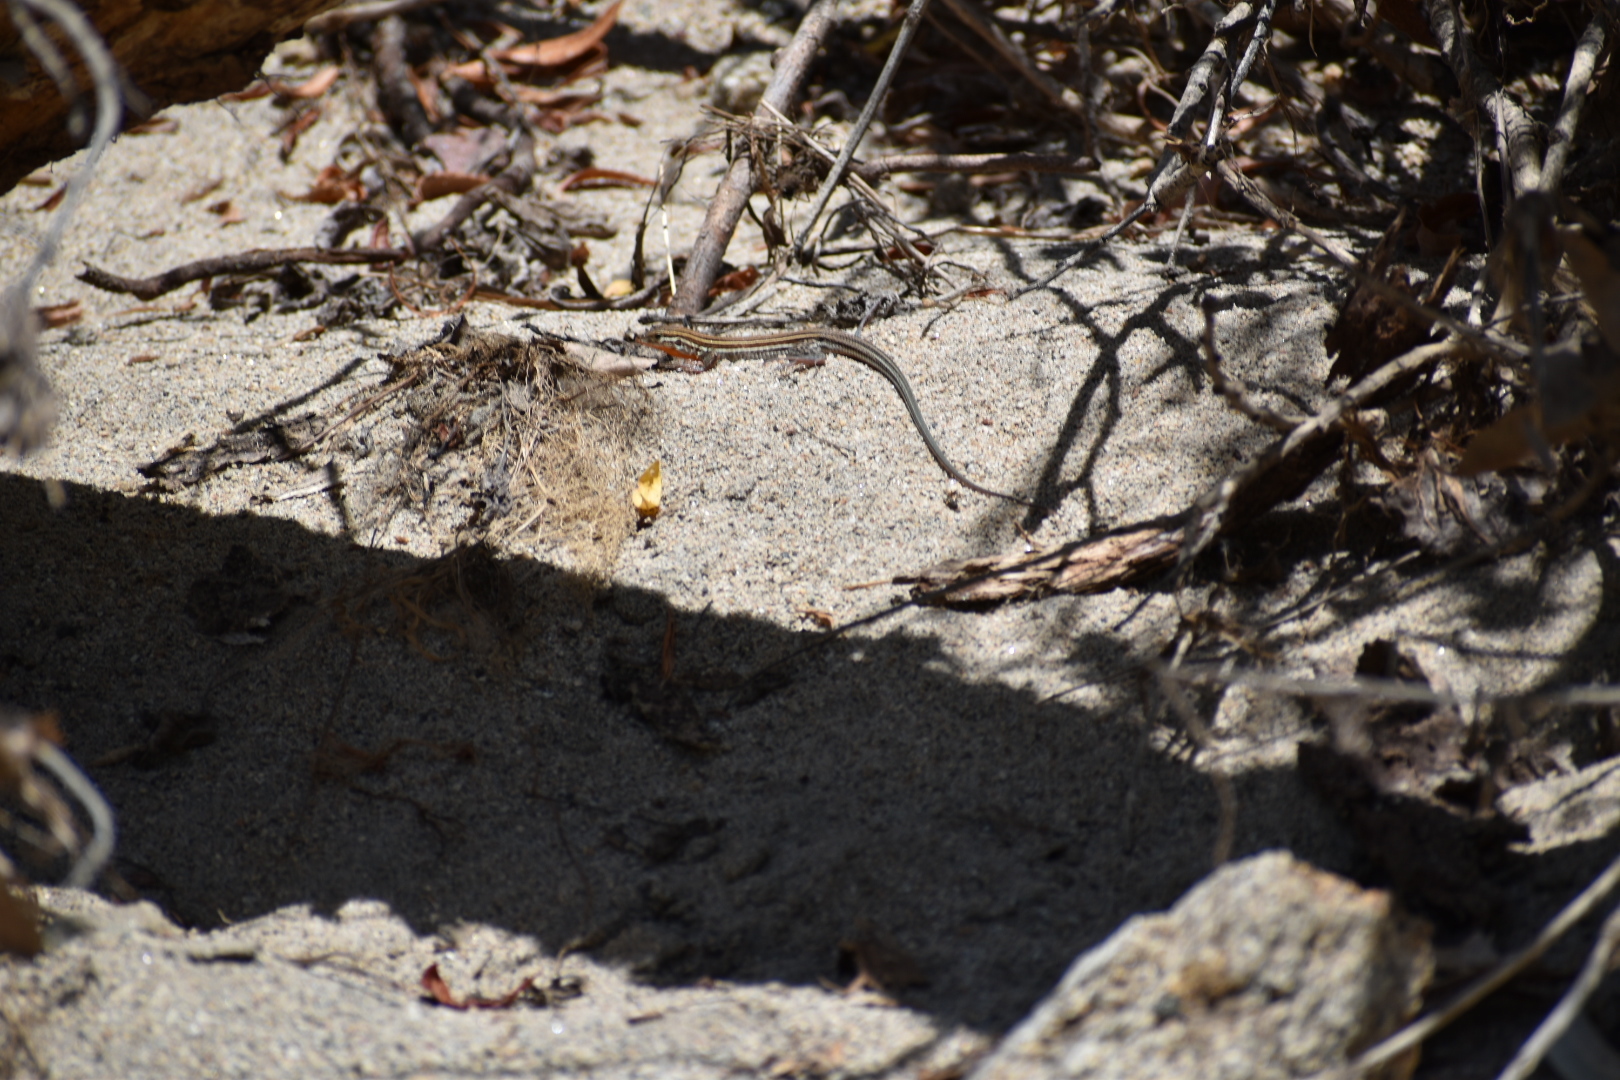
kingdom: Animalia
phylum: Chordata
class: Squamata
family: Teiidae
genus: Aspidoscelis
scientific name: Aspidoscelis hyperythrus
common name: Orange-throated race-runner
